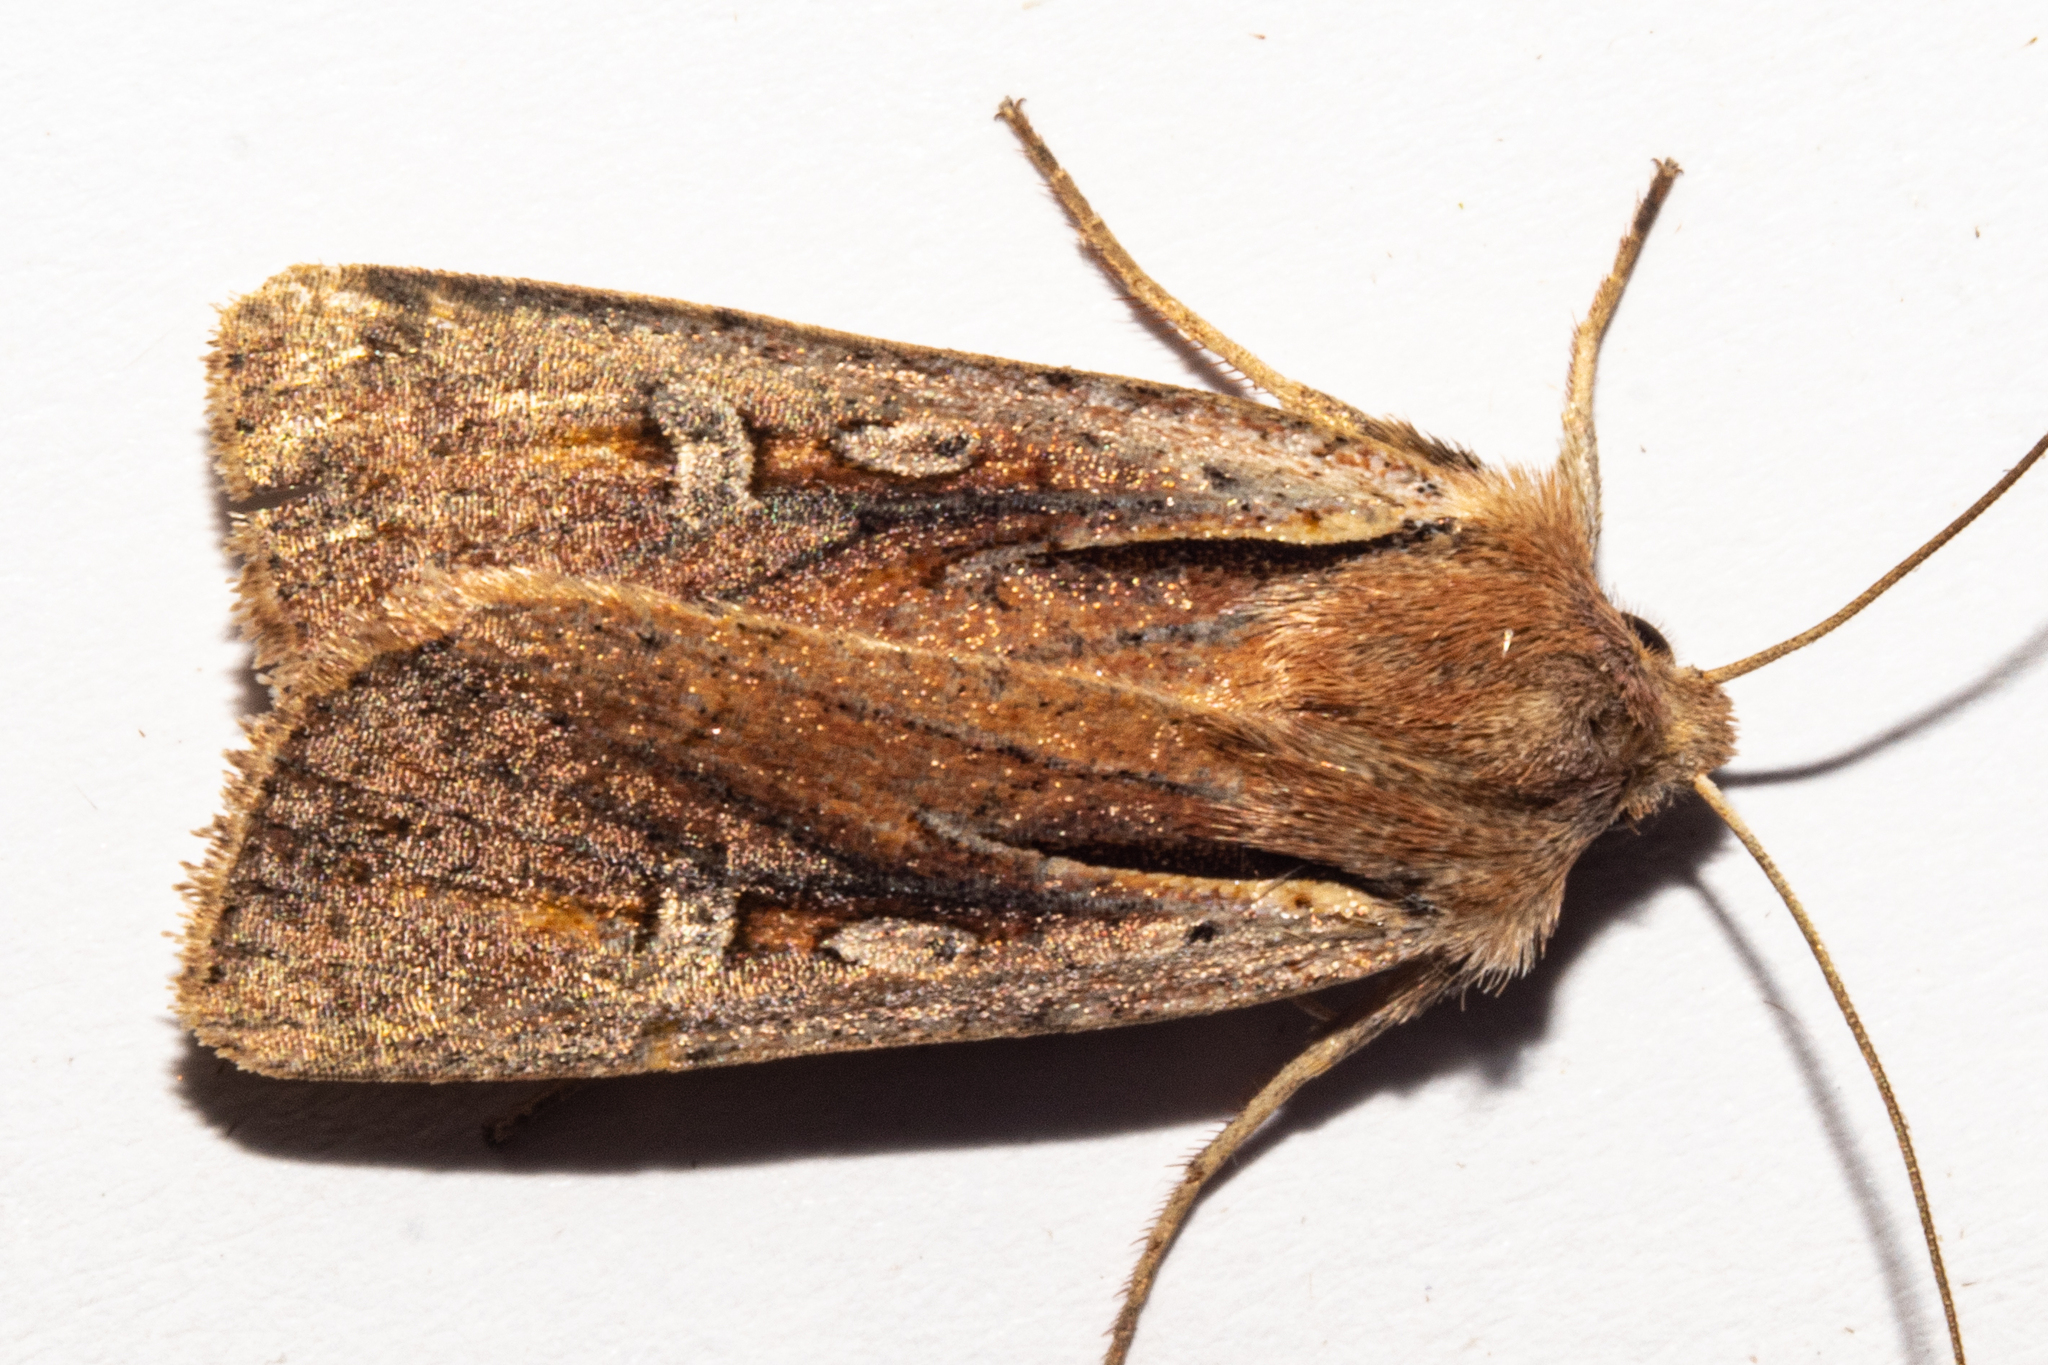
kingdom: Animalia
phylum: Arthropoda
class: Insecta
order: Lepidoptera
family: Noctuidae
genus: Ichneutica
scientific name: Ichneutica atristriga
